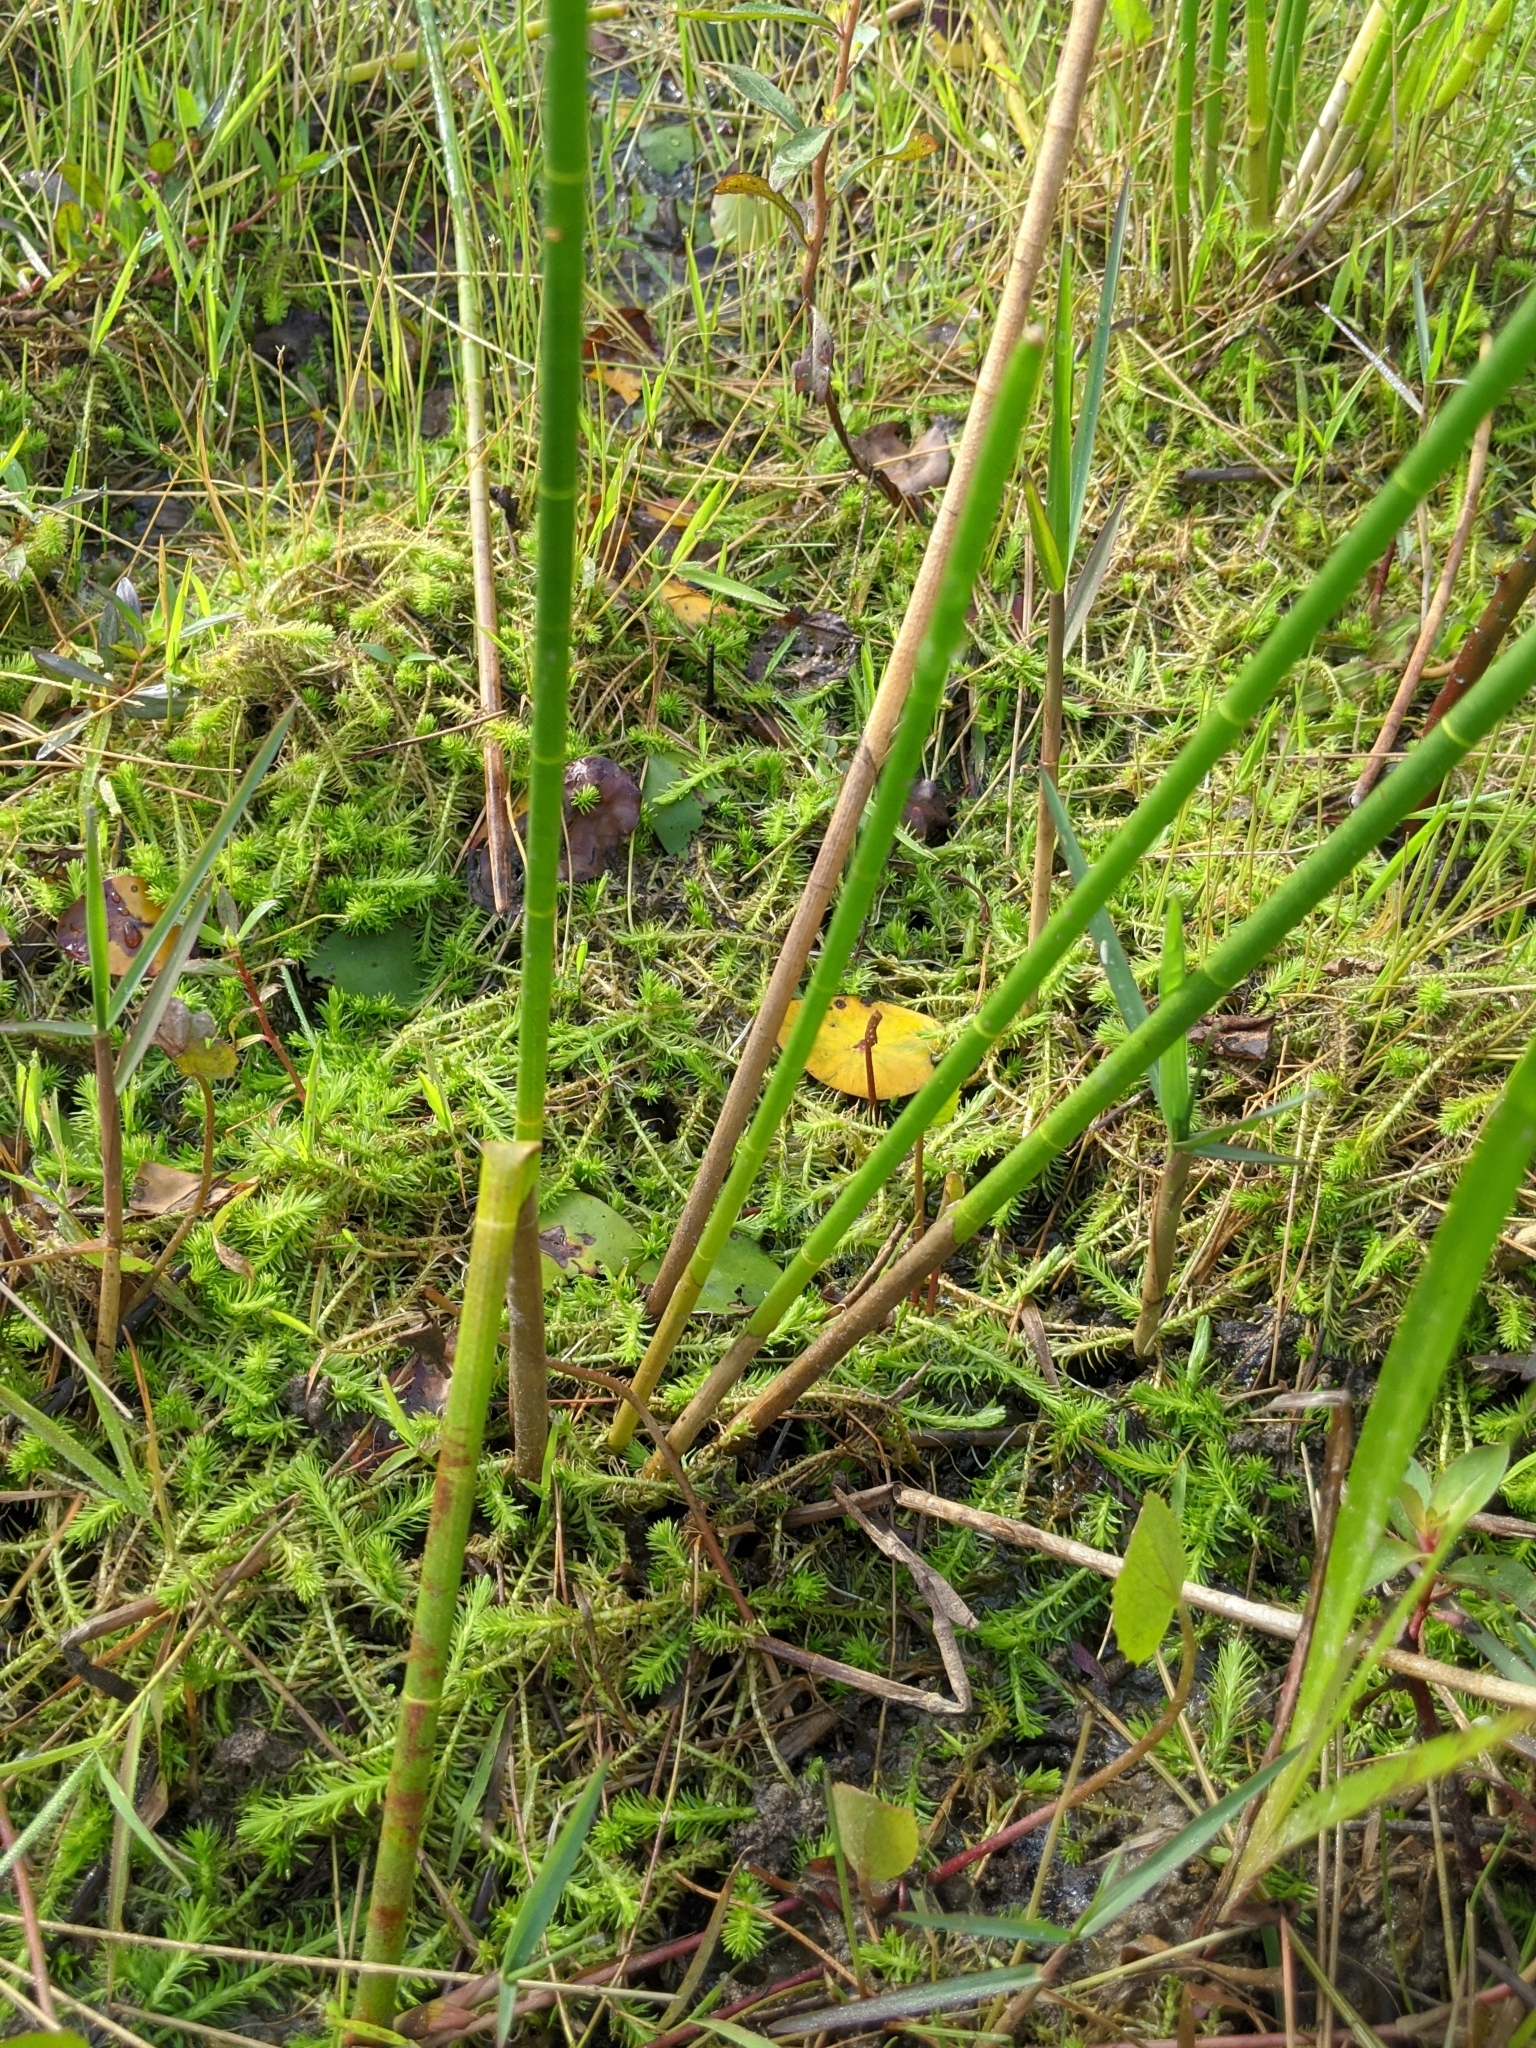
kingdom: Plantae
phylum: Tracheophyta
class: Liliopsida
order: Poales
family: Cyperaceae
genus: Eleocharis
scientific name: Eleocharis equisetoides
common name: Horsetail spike-rush
